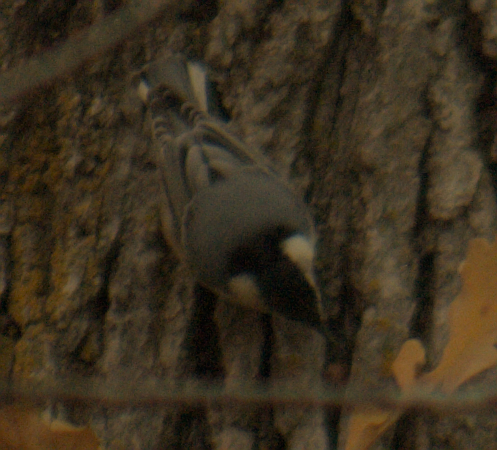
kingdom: Animalia
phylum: Chordata
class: Aves
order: Passeriformes
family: Sittidae
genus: Sitta
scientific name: Sitta carolinensis
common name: White-breasted nuthatch
